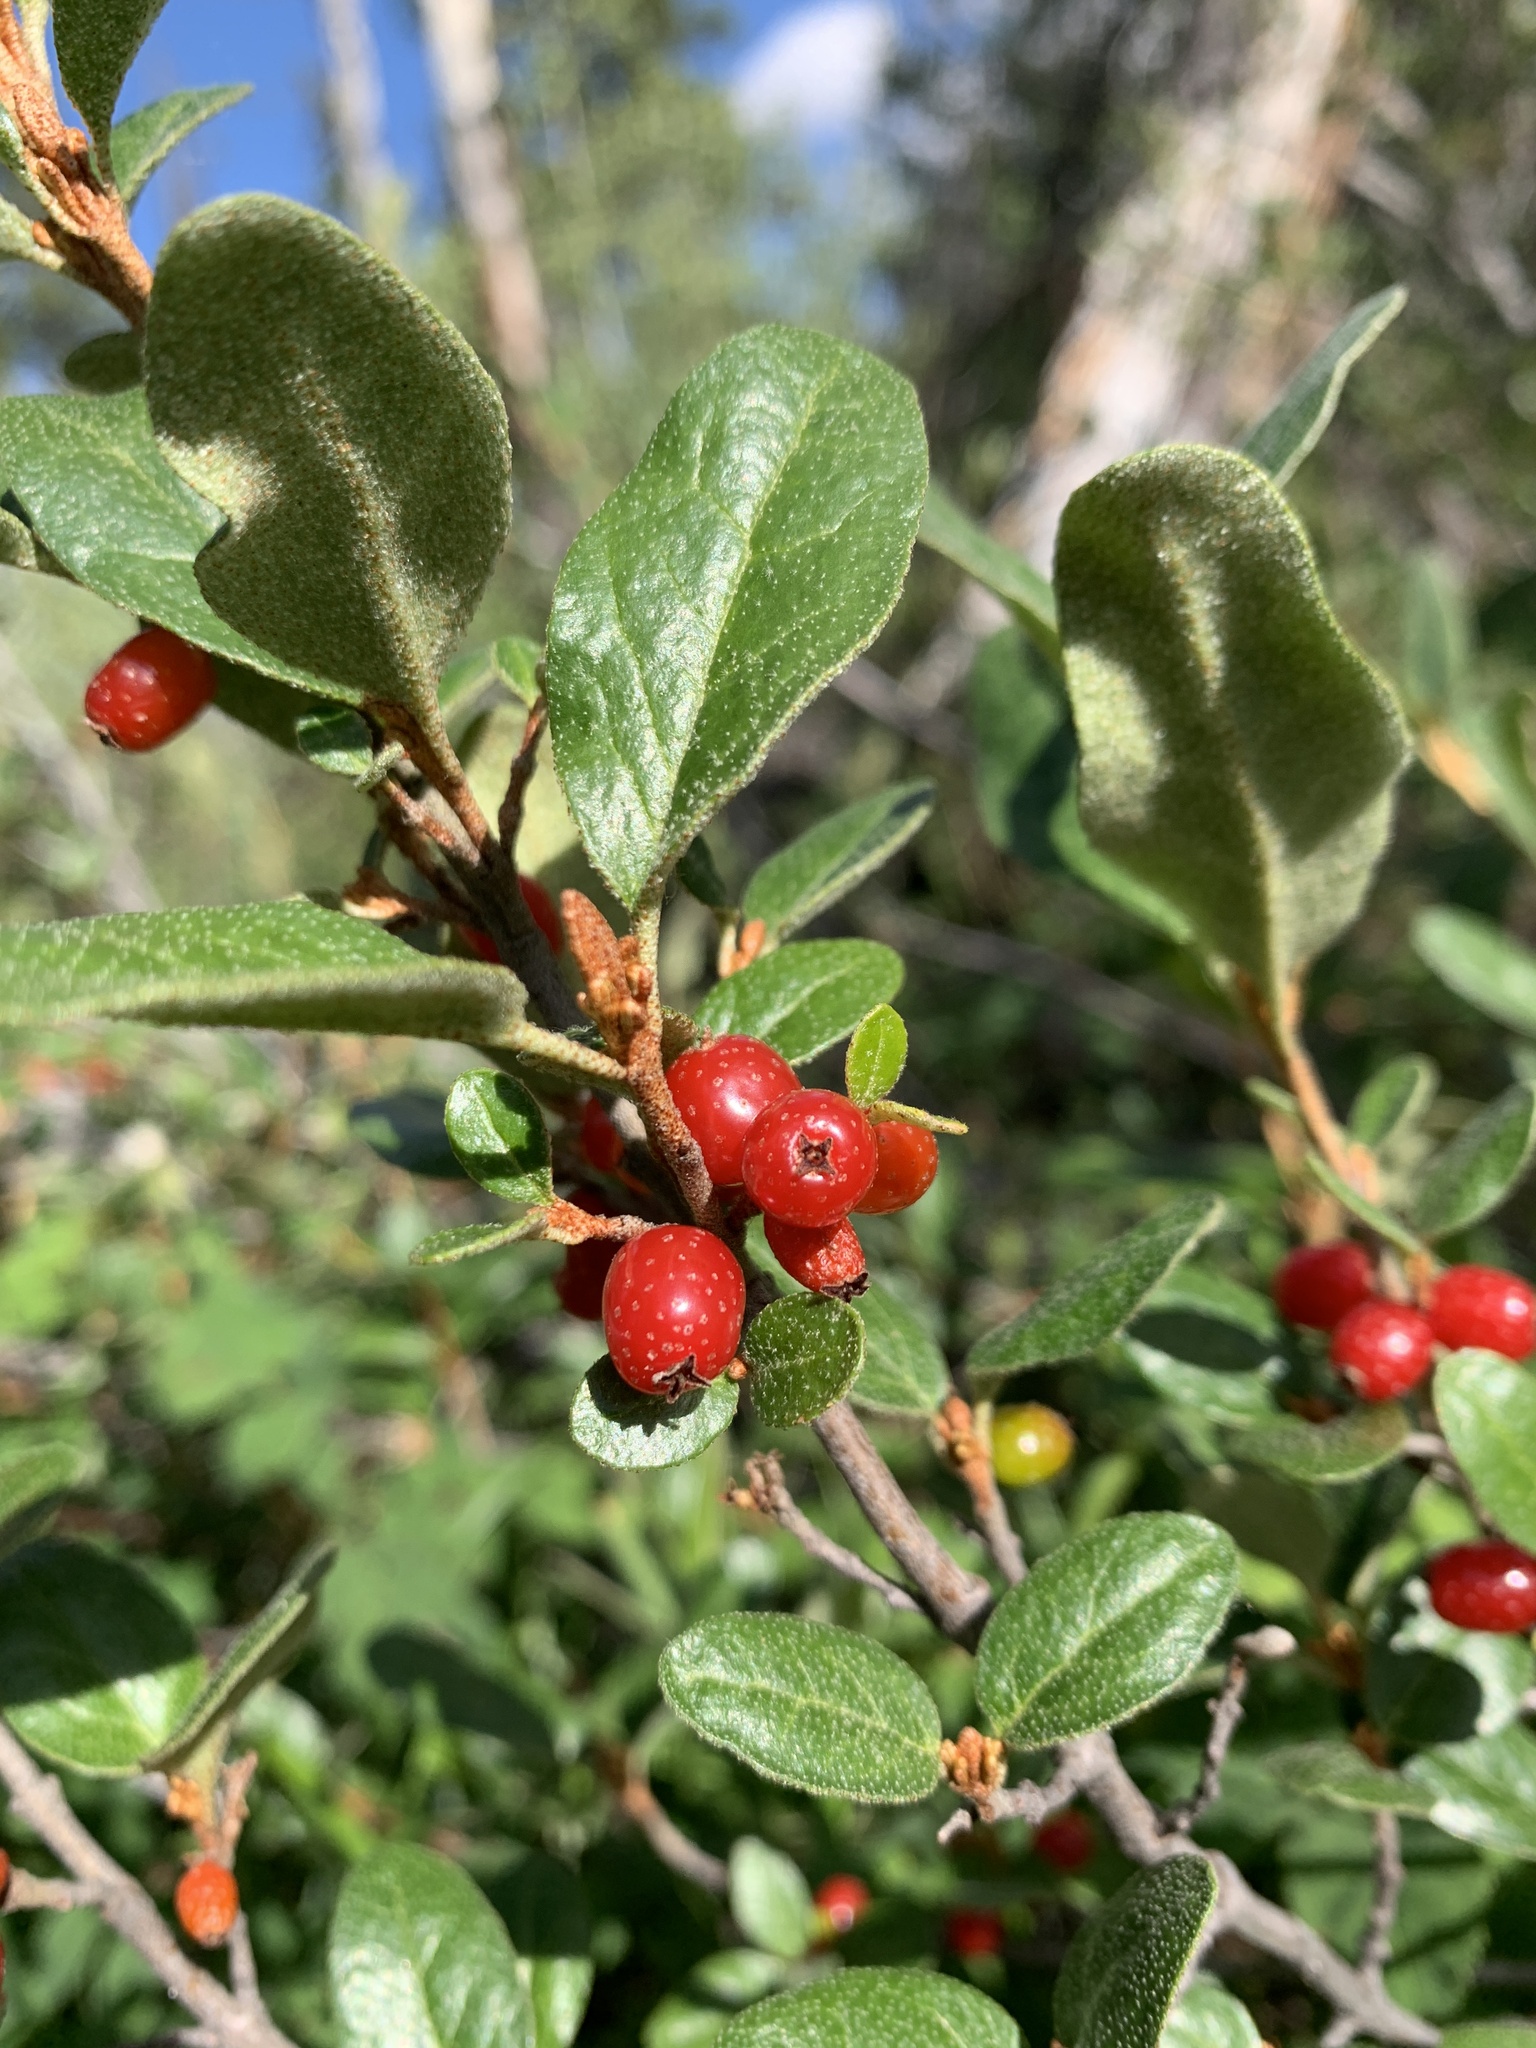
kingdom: Plantae
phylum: Tracheophyta
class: Magnoliopsida
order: Rosales
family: Elaeagnaceae
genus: Shepherdia
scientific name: Shepherdia canadensis
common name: Soapberry
